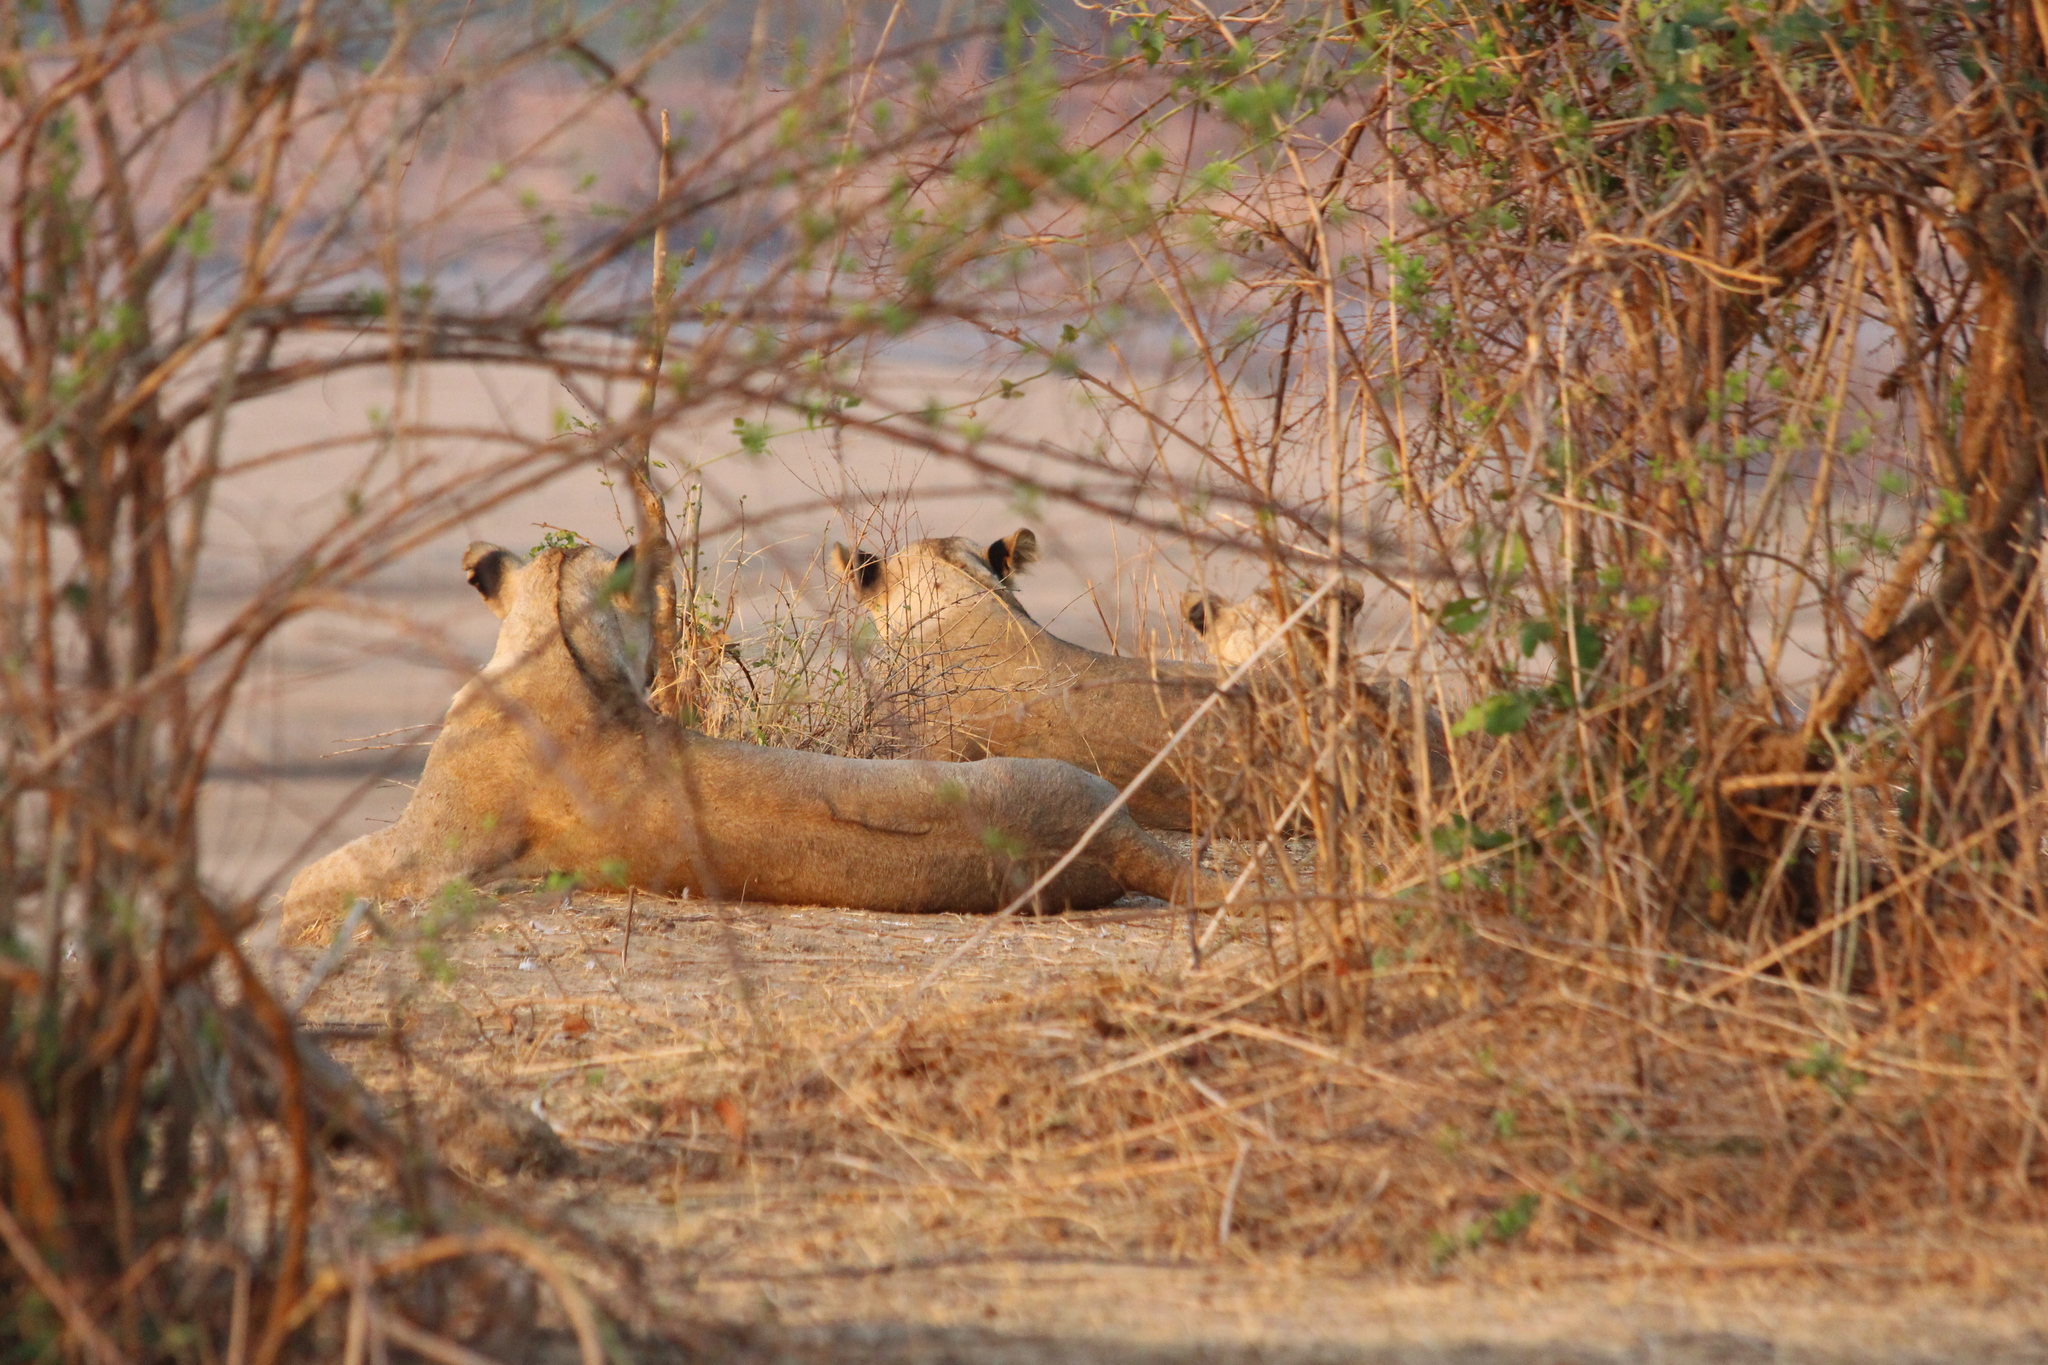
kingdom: Animalia
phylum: Chordata
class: Mammalia
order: Carnivora
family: Felidae
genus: Panthera
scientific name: Panthera leo
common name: Lion
